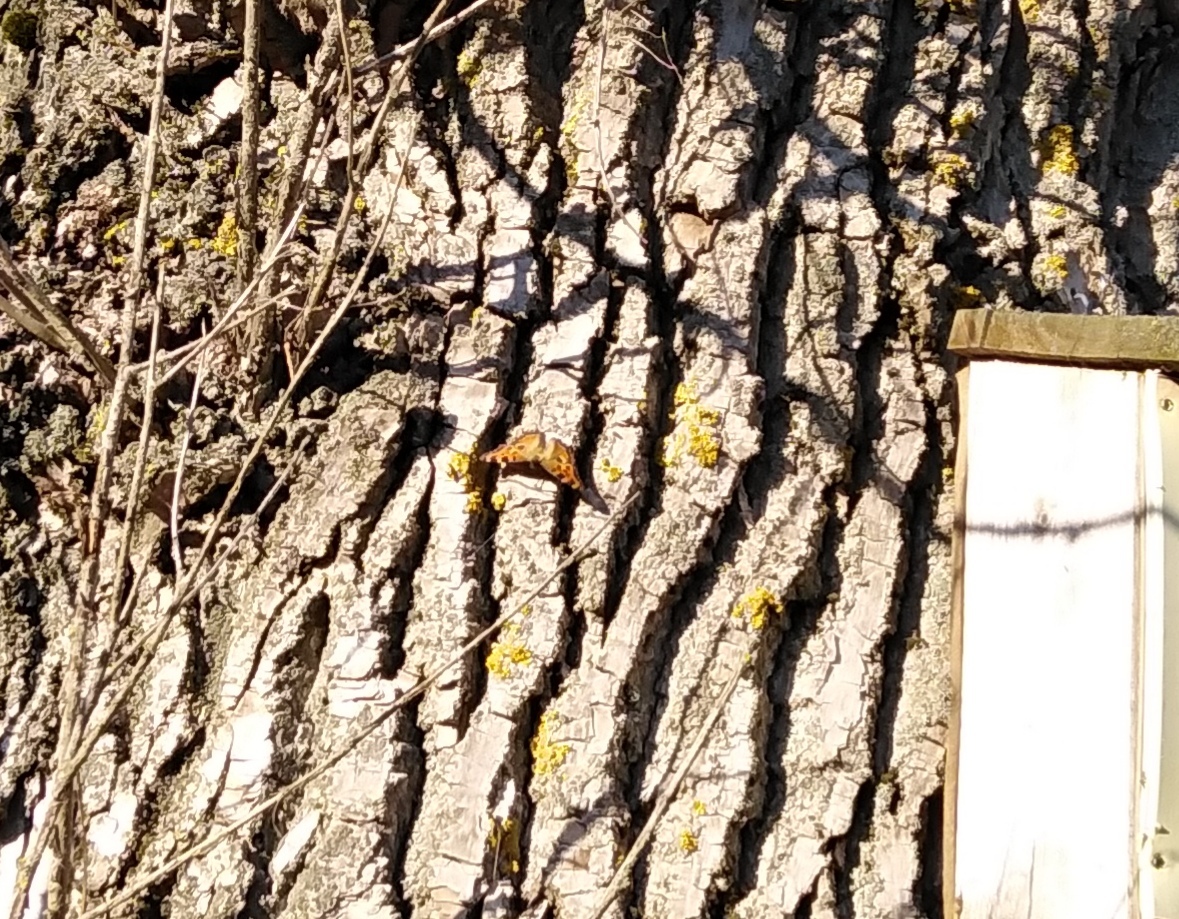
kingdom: Animalia
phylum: Arthropoda
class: Insecta
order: Lepidoptera
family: Nymphalidae
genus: Nymphalis
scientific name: Nymphalis polychloros
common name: Large tortoiseshell
